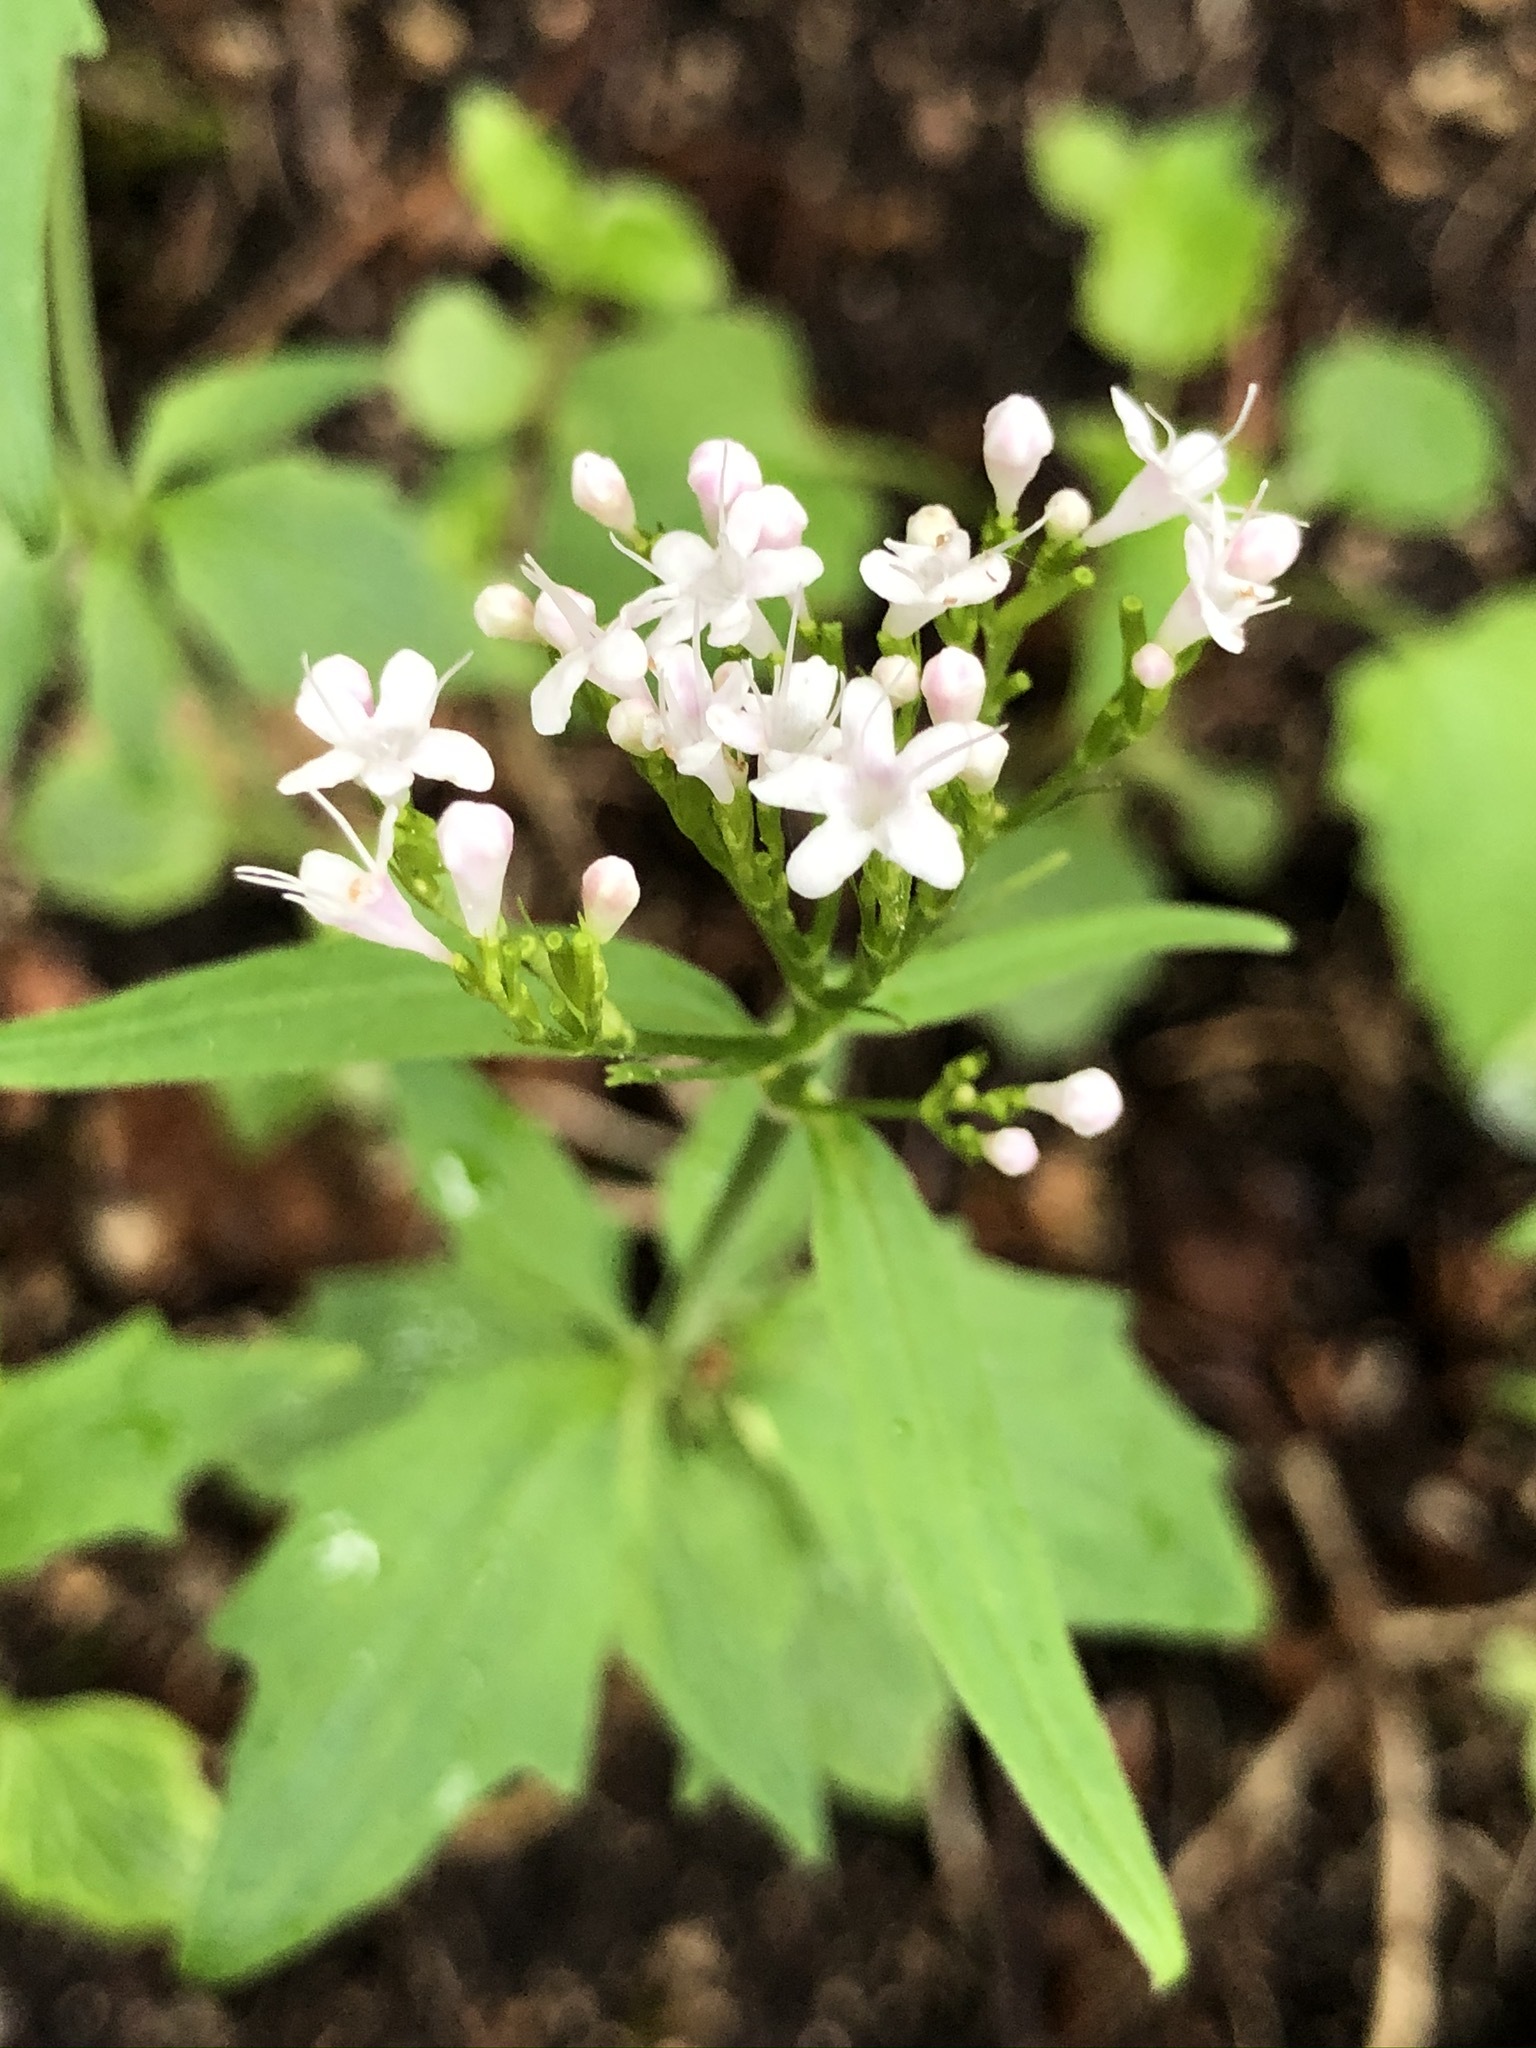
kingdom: Plantae
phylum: Tracheophyta
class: Magnoliopsida
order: Dipsacales
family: Caprifoliaceae
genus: Valeriana
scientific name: Valeriana tripteris
